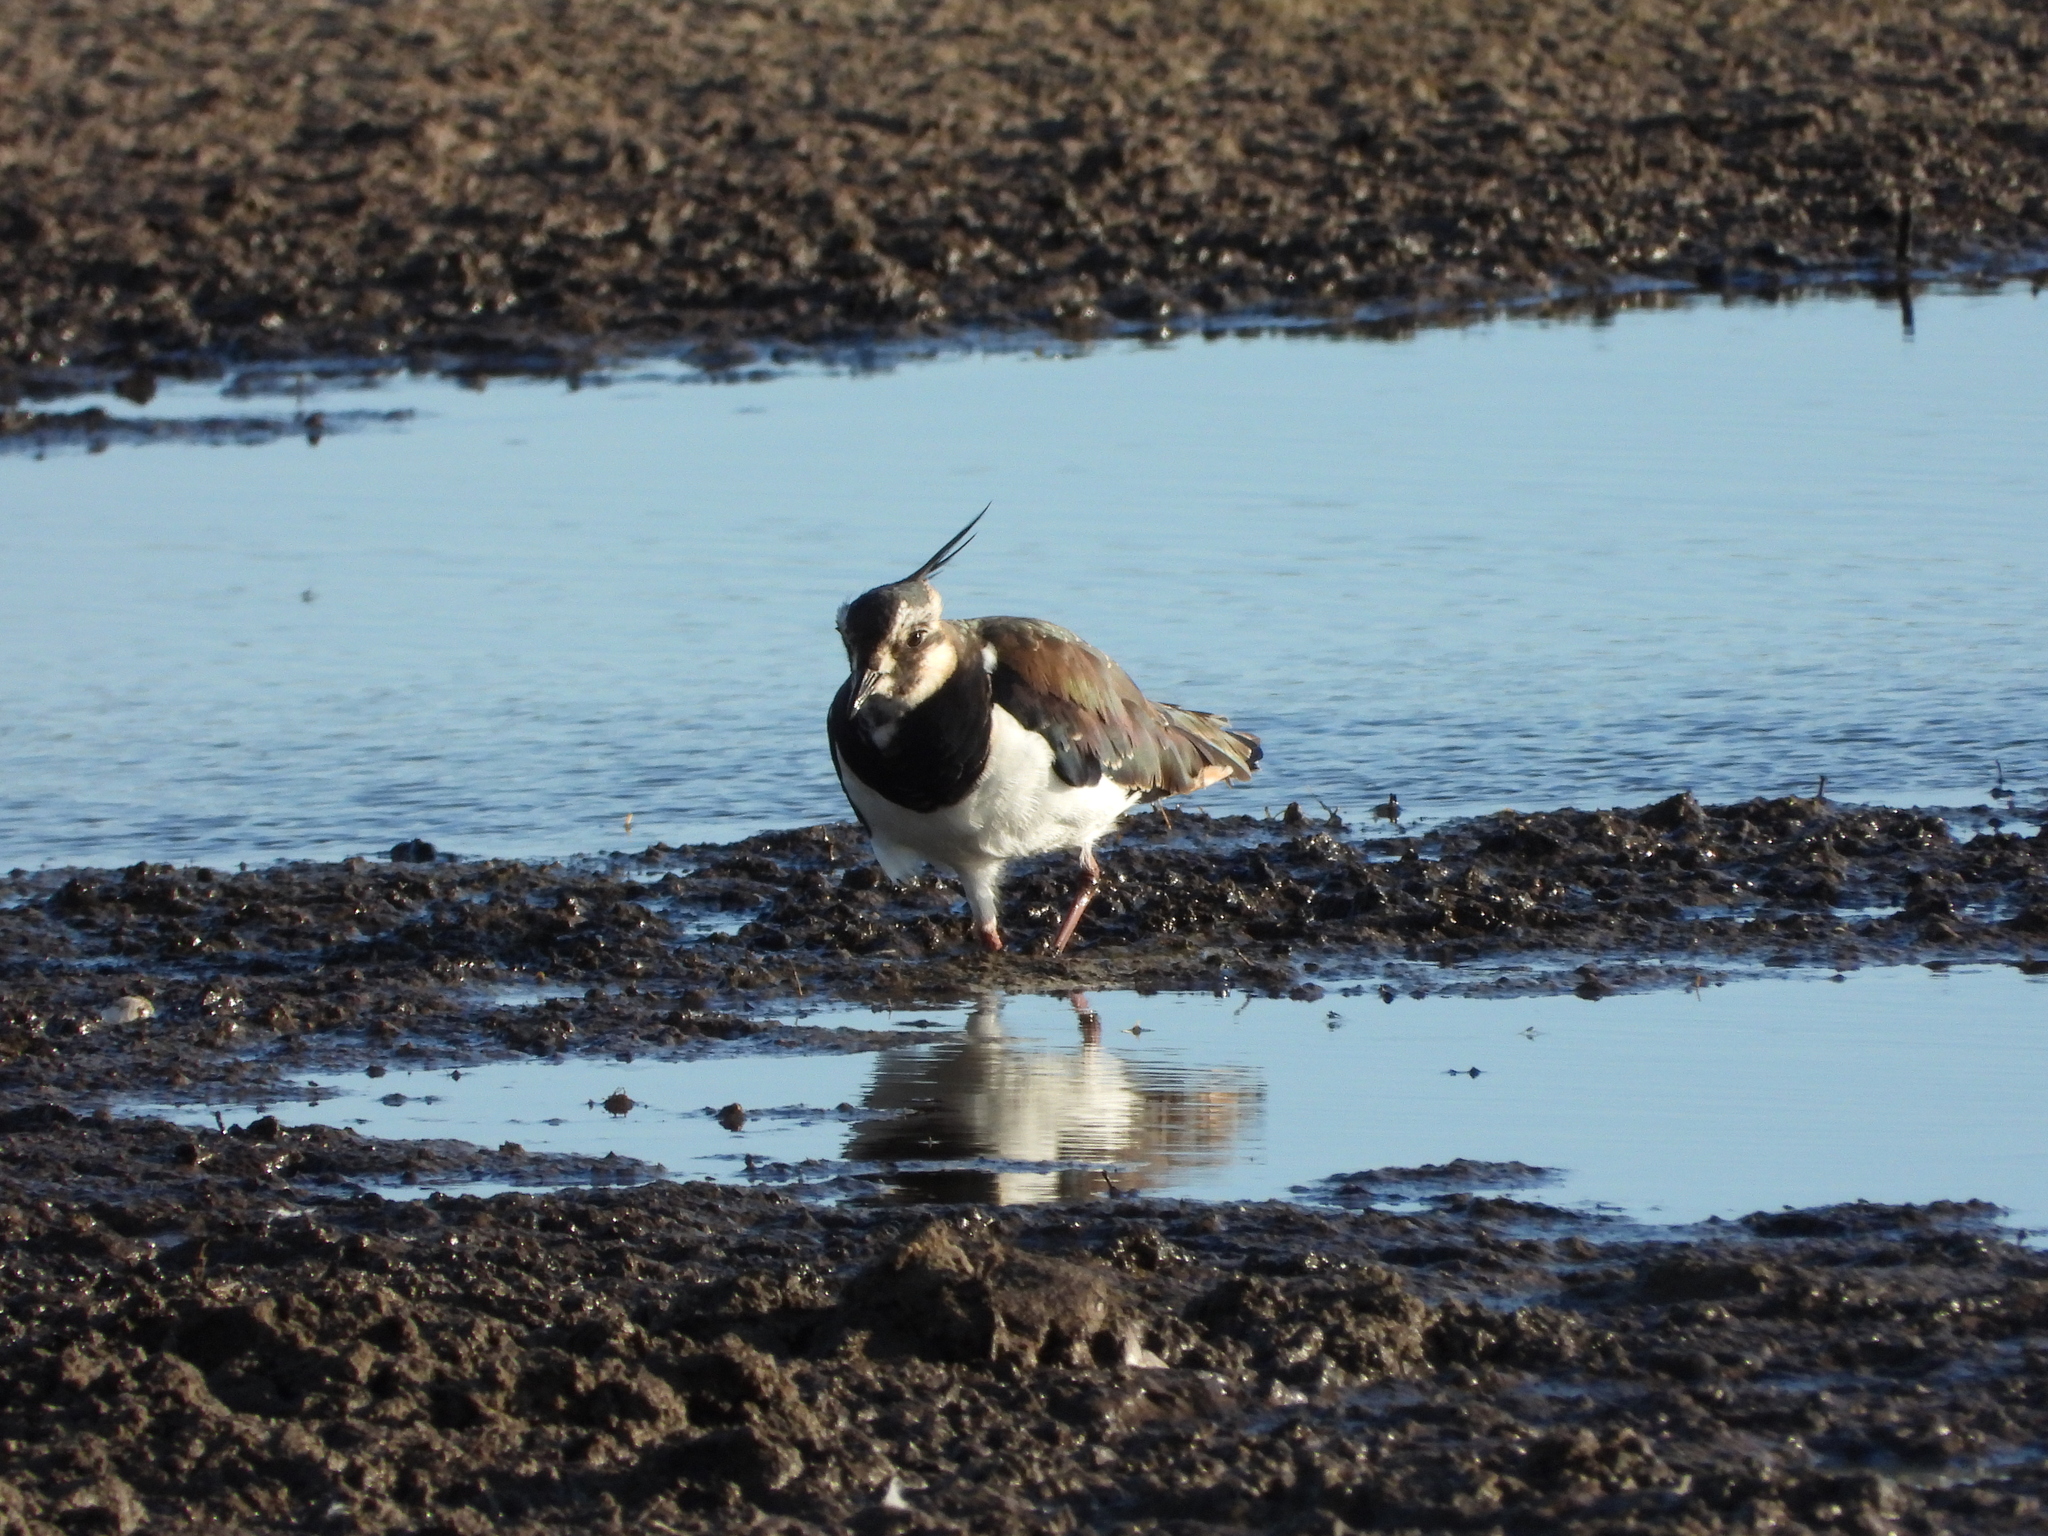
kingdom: Animalia
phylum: Chordata
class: Aves
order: Charadriiformes
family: Charadriidae
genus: Vanellus
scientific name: Vanellus vanellus
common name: Northern lapwing
